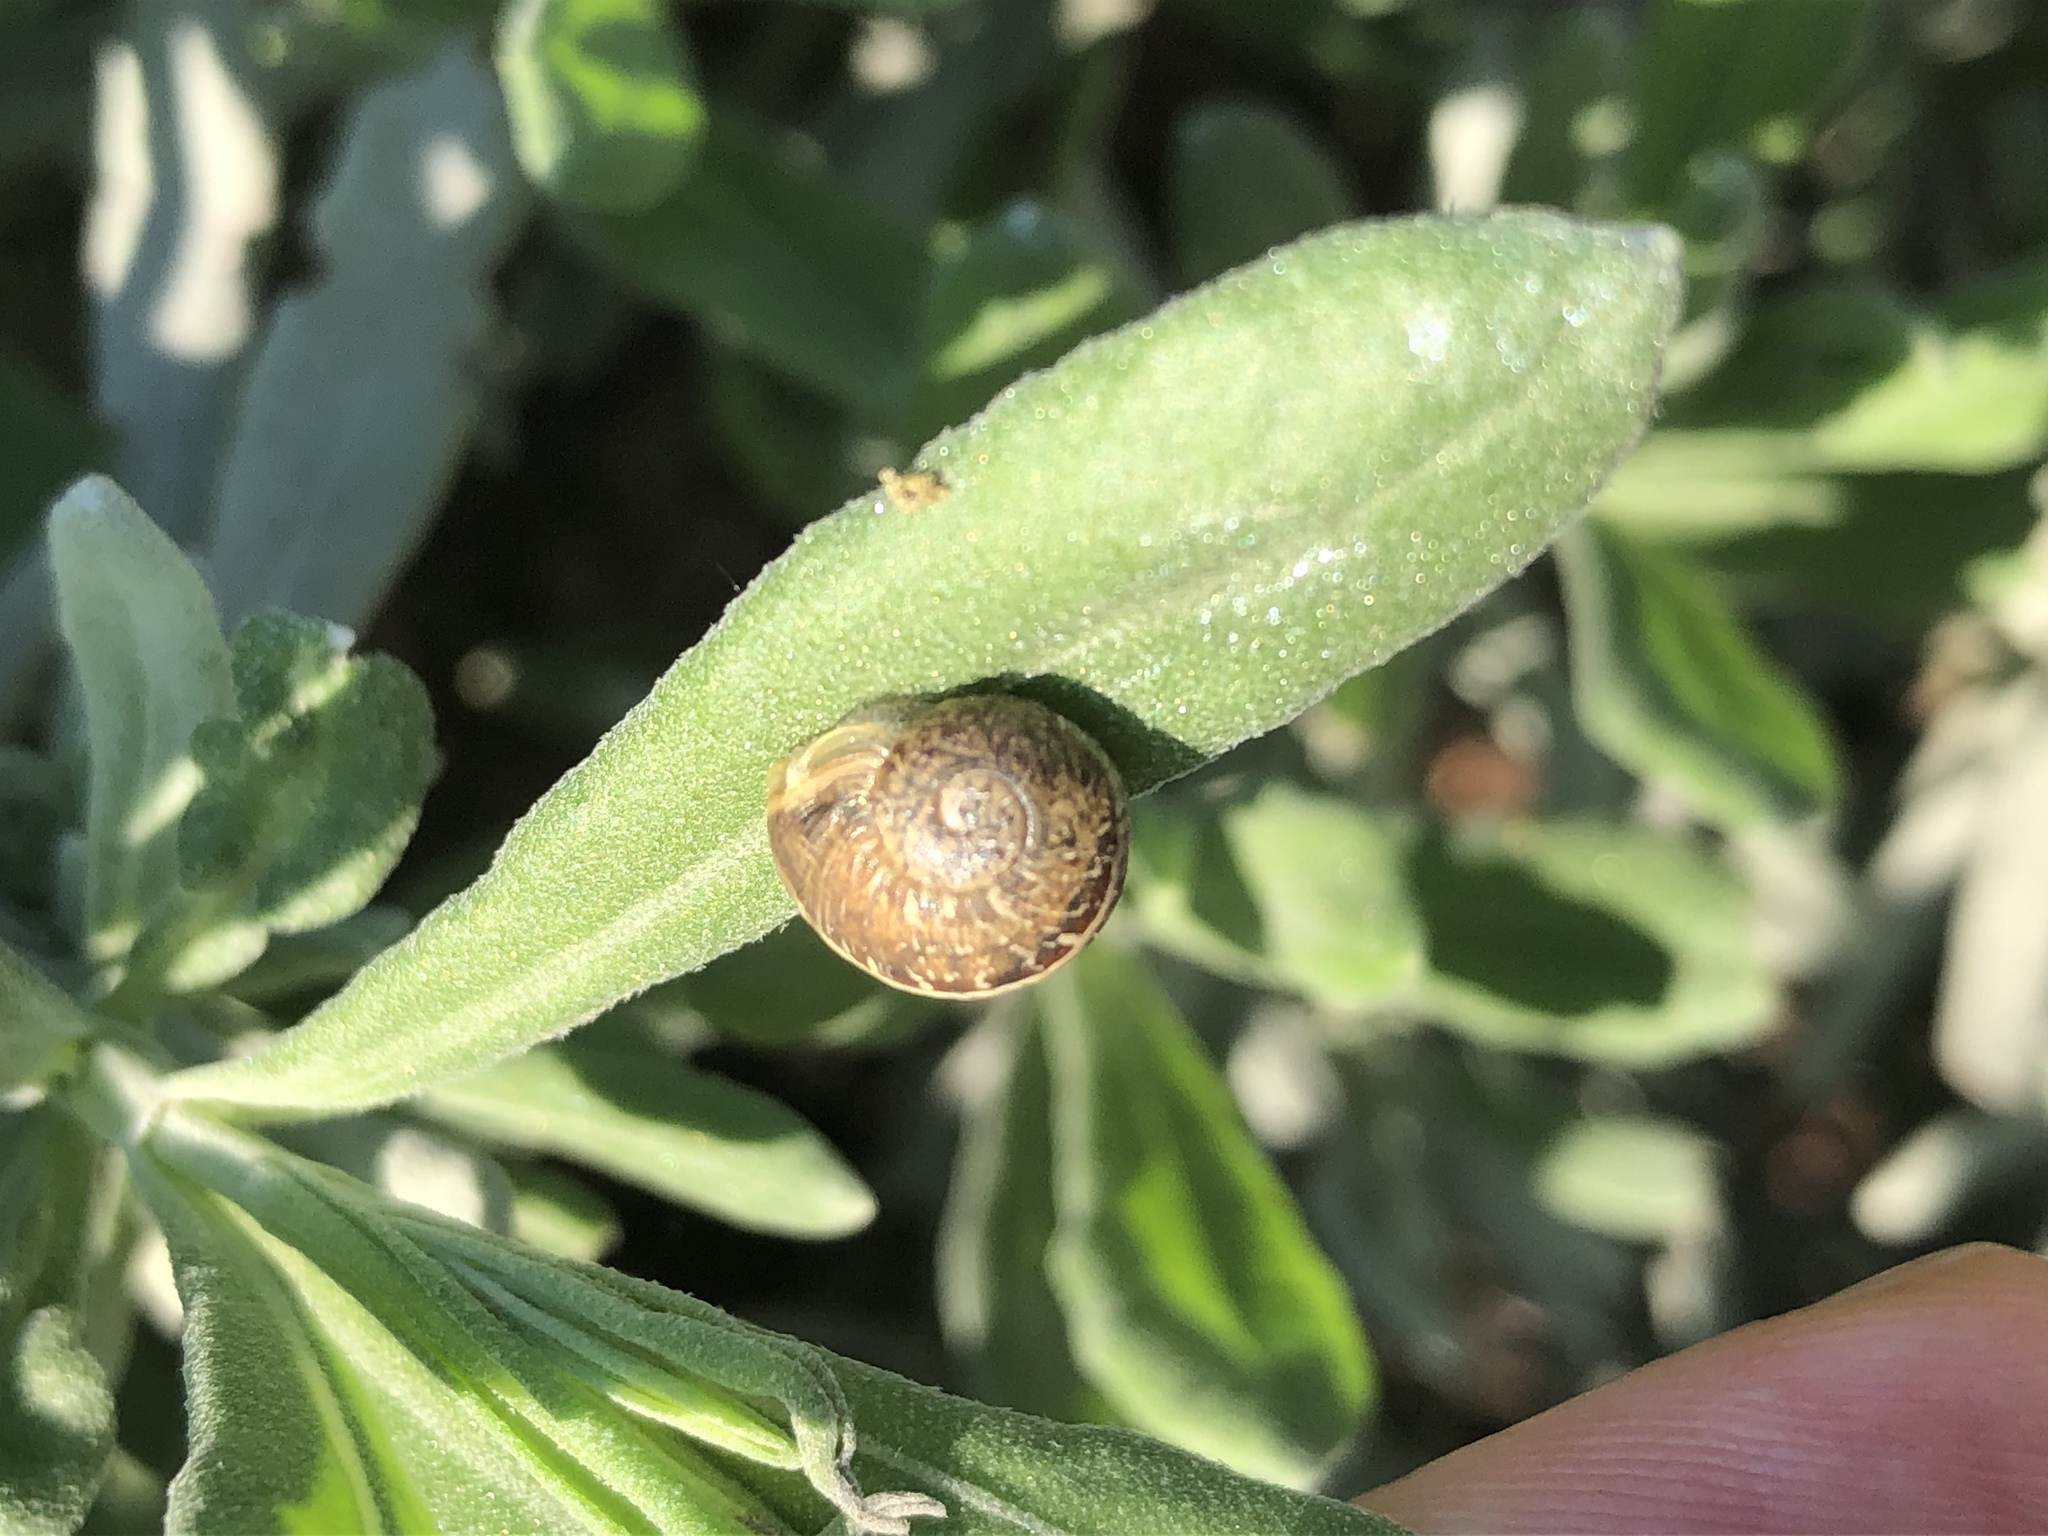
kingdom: Animalia
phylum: Mollusca
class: Gastropoda
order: Stylommatophora
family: Helicidae
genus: Cornu
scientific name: Cornu aspersum
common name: Brown garden snail
